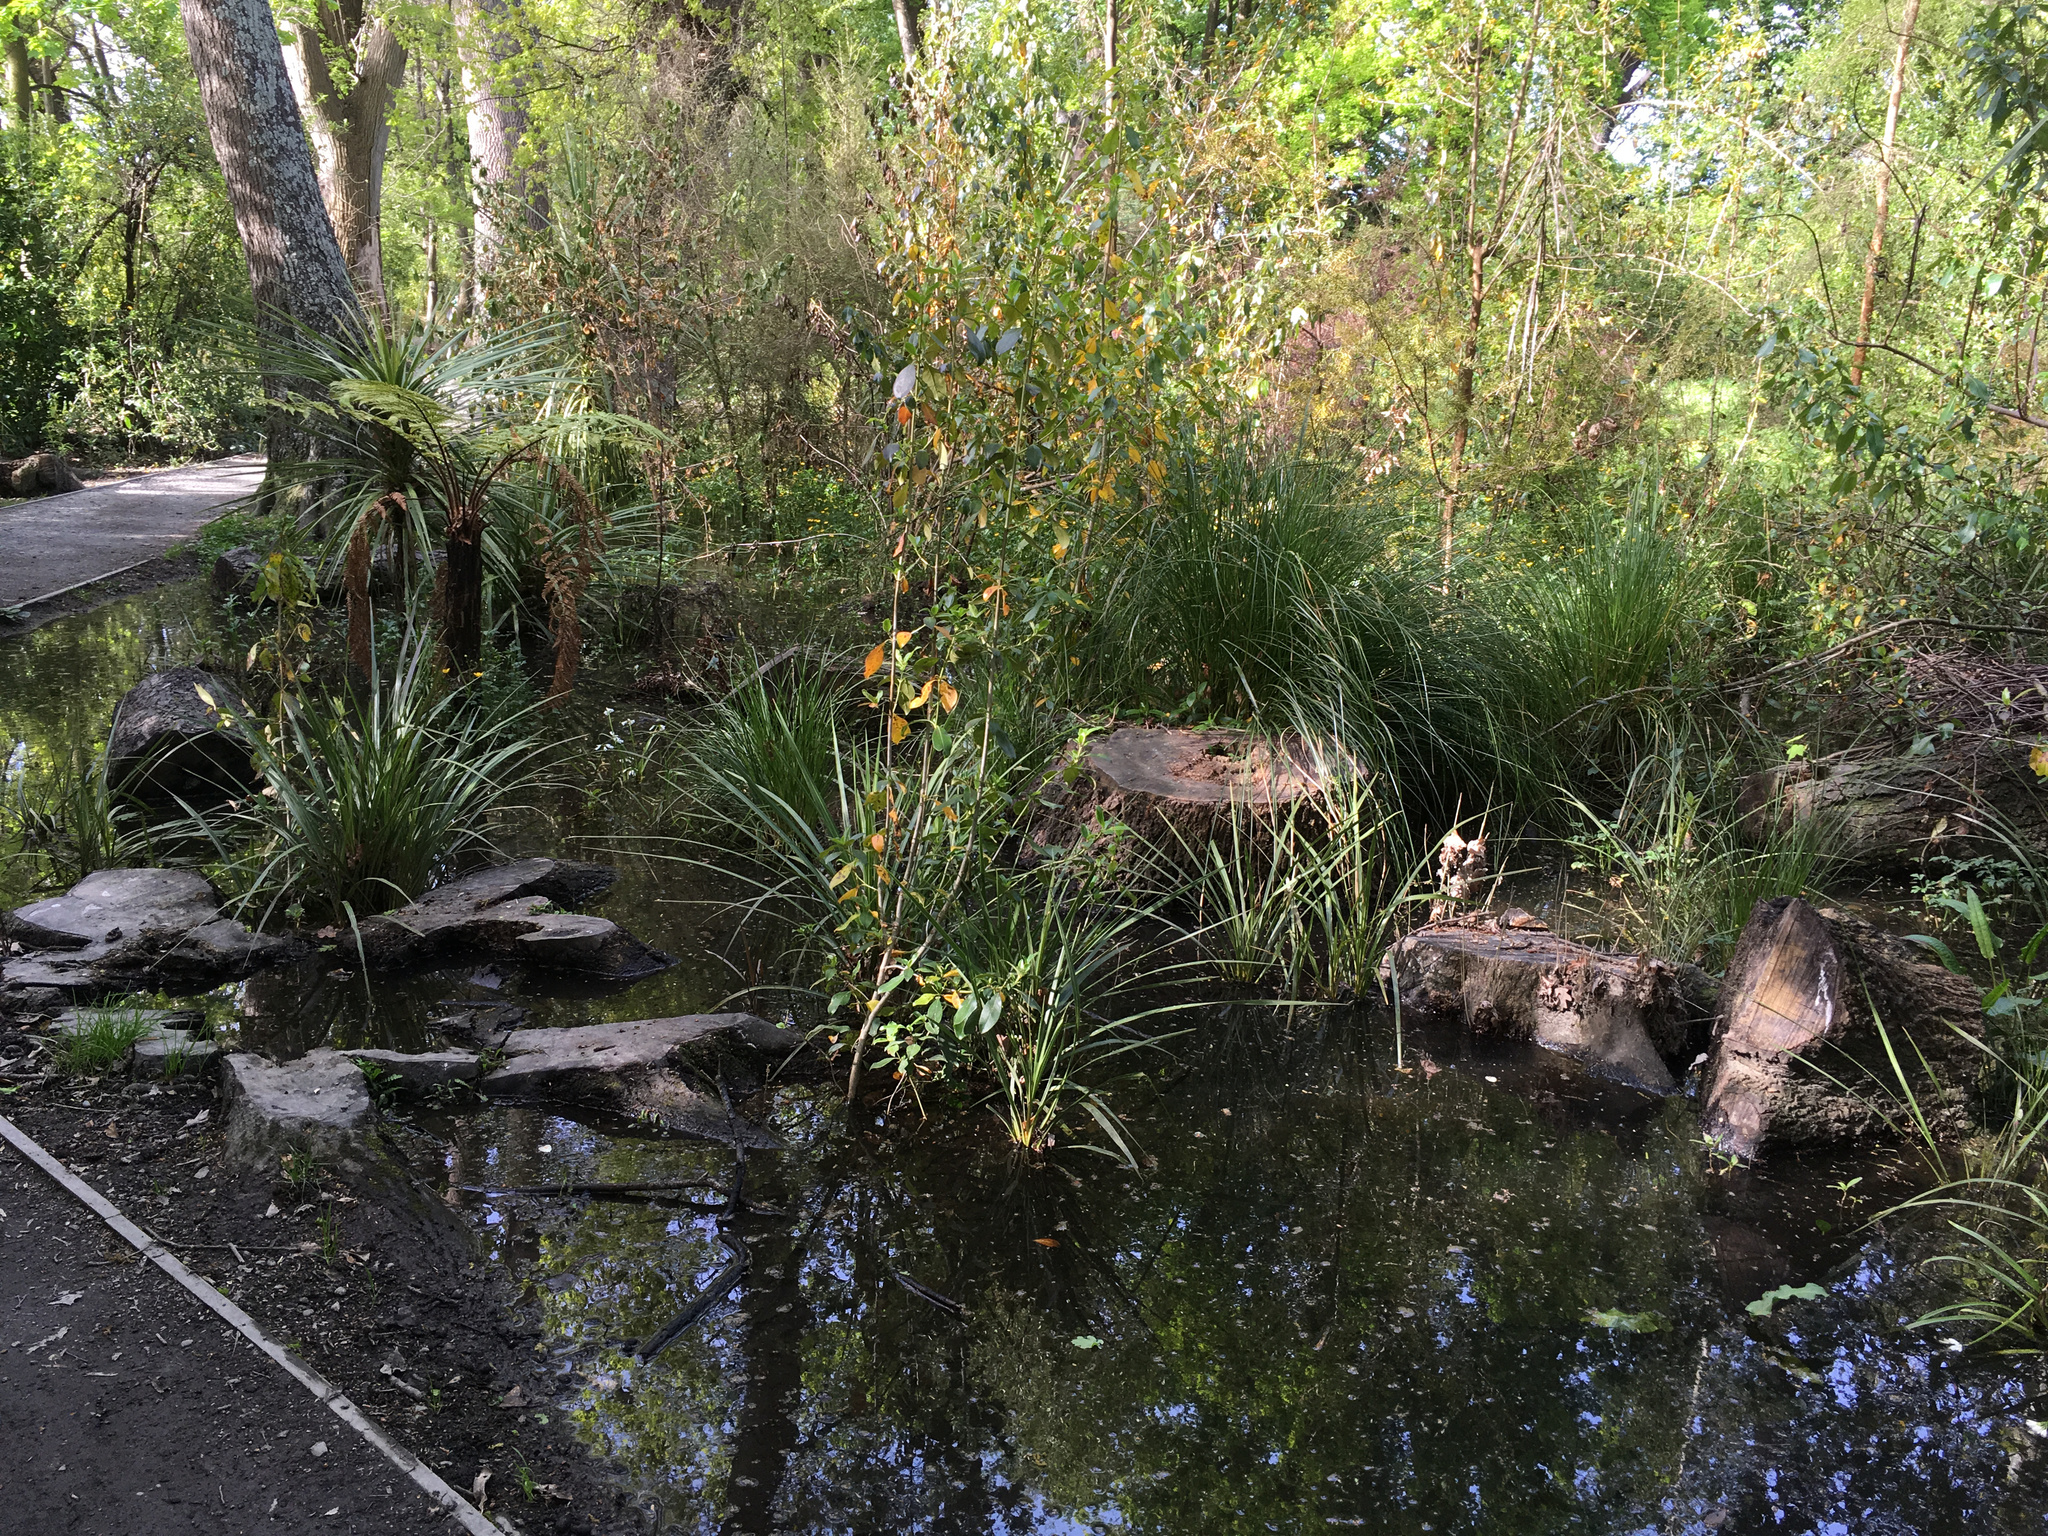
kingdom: Plantae
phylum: Tracheophyta
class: Liliopsida
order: Asparagales
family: Asparagaceae
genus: Cordyline
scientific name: Cordyline australis
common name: Cabbage-palm
